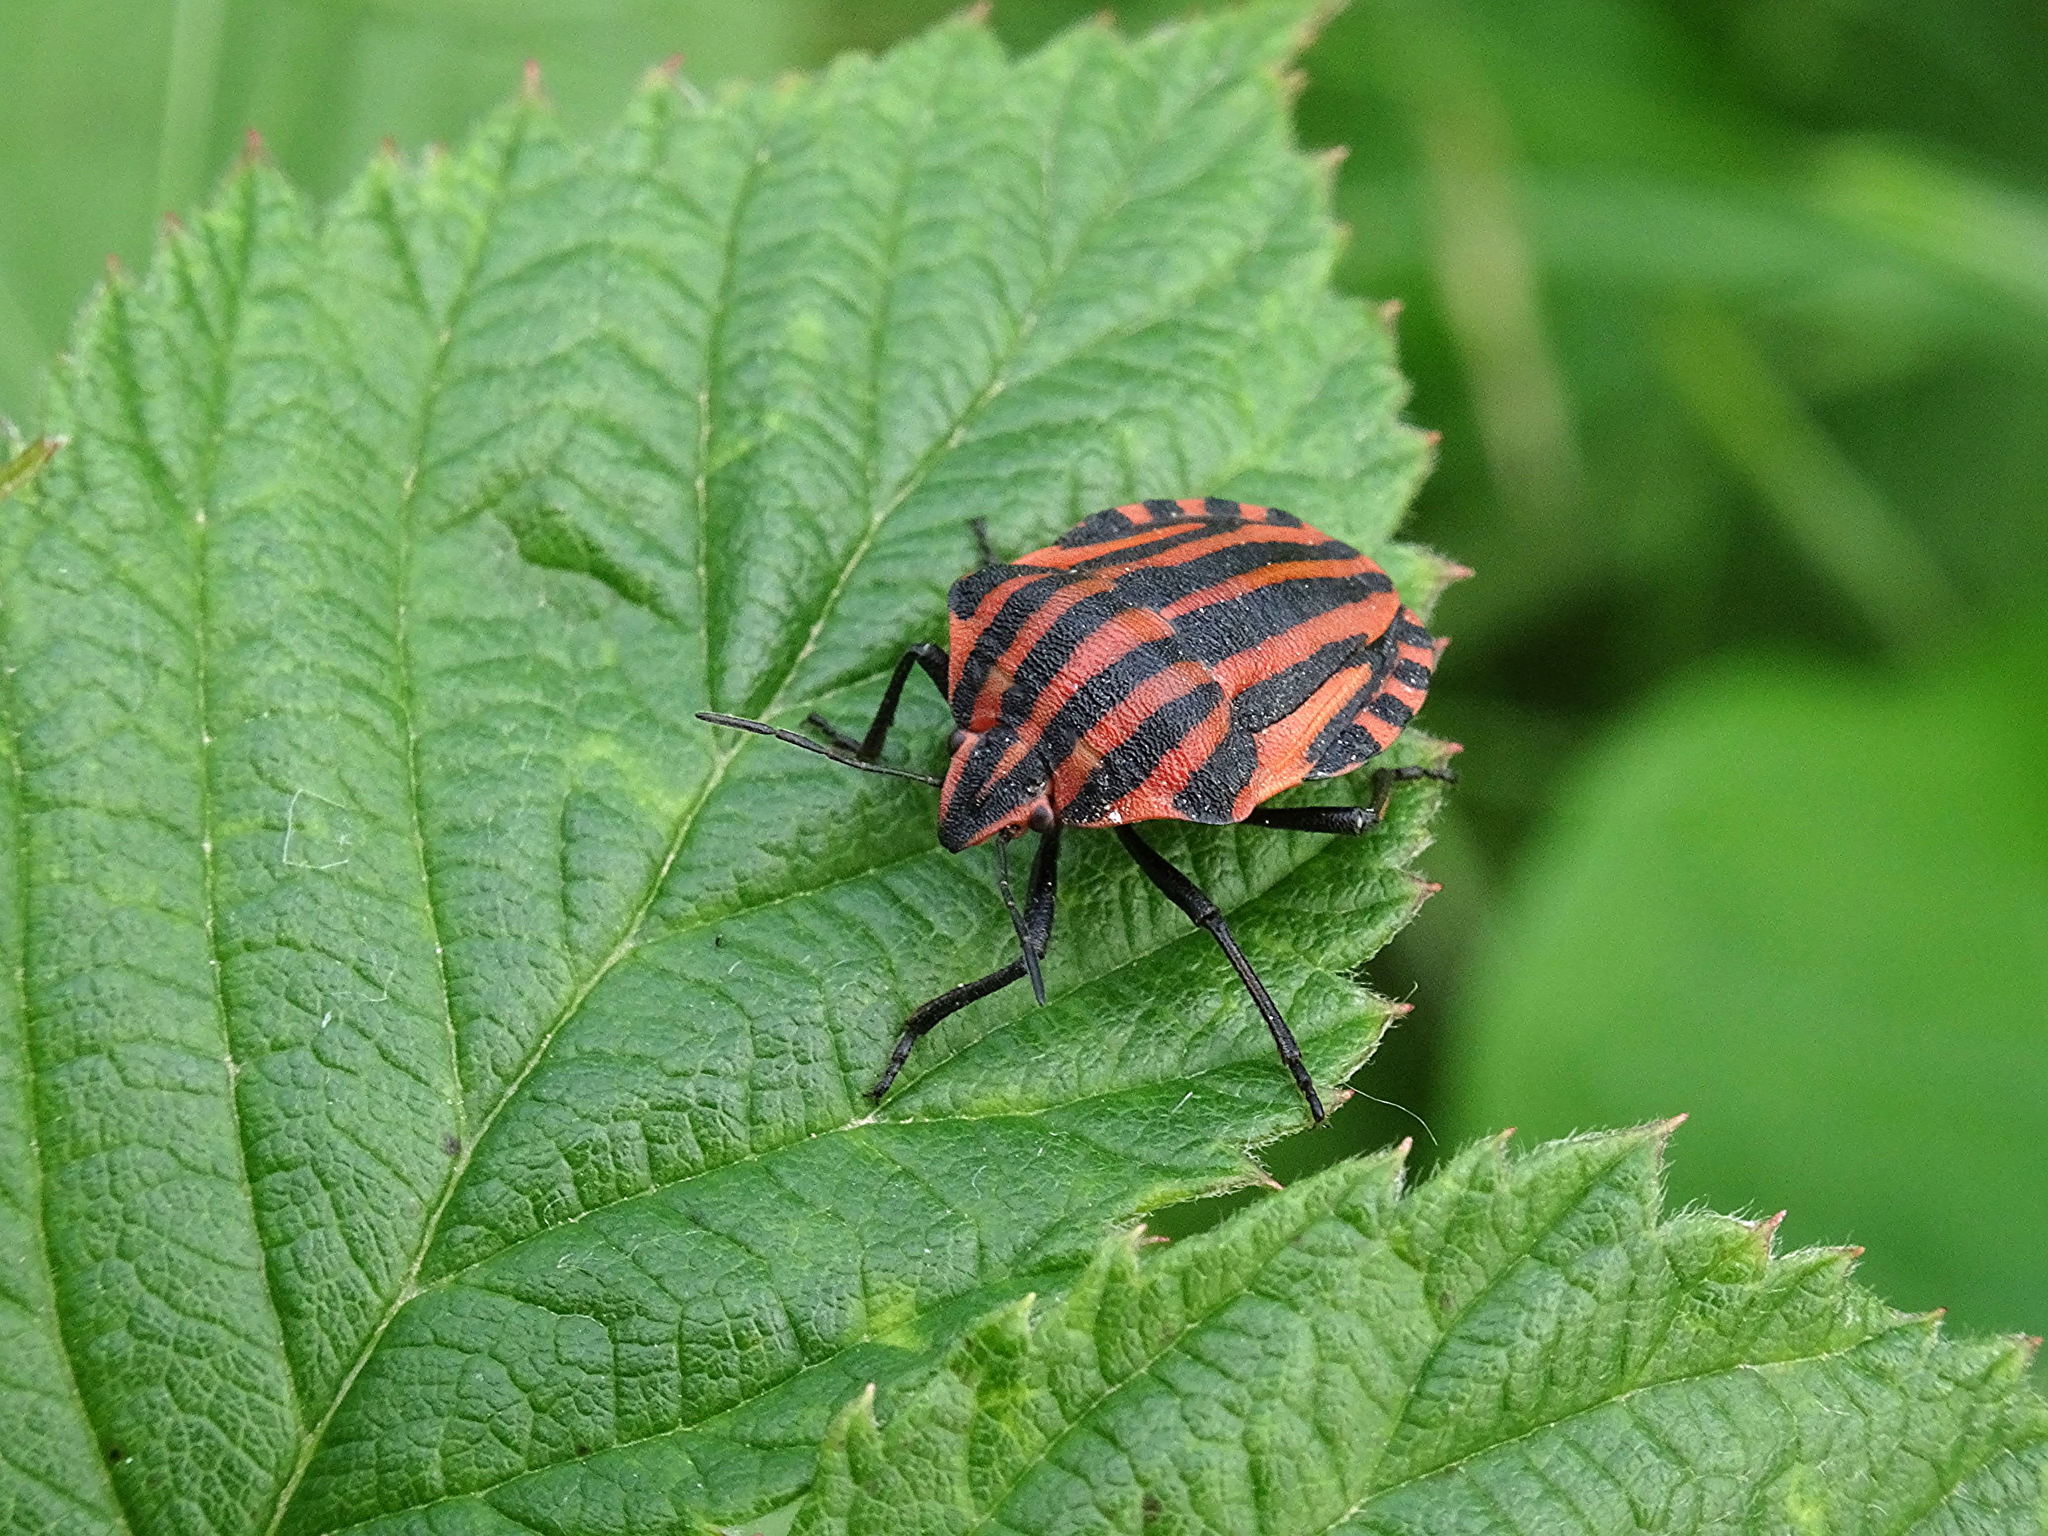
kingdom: Animalia
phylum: Arthropoda
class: Insecta
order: Hemiptera
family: Pentatomidae
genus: Graphosoma
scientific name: Graphosoma italicum
